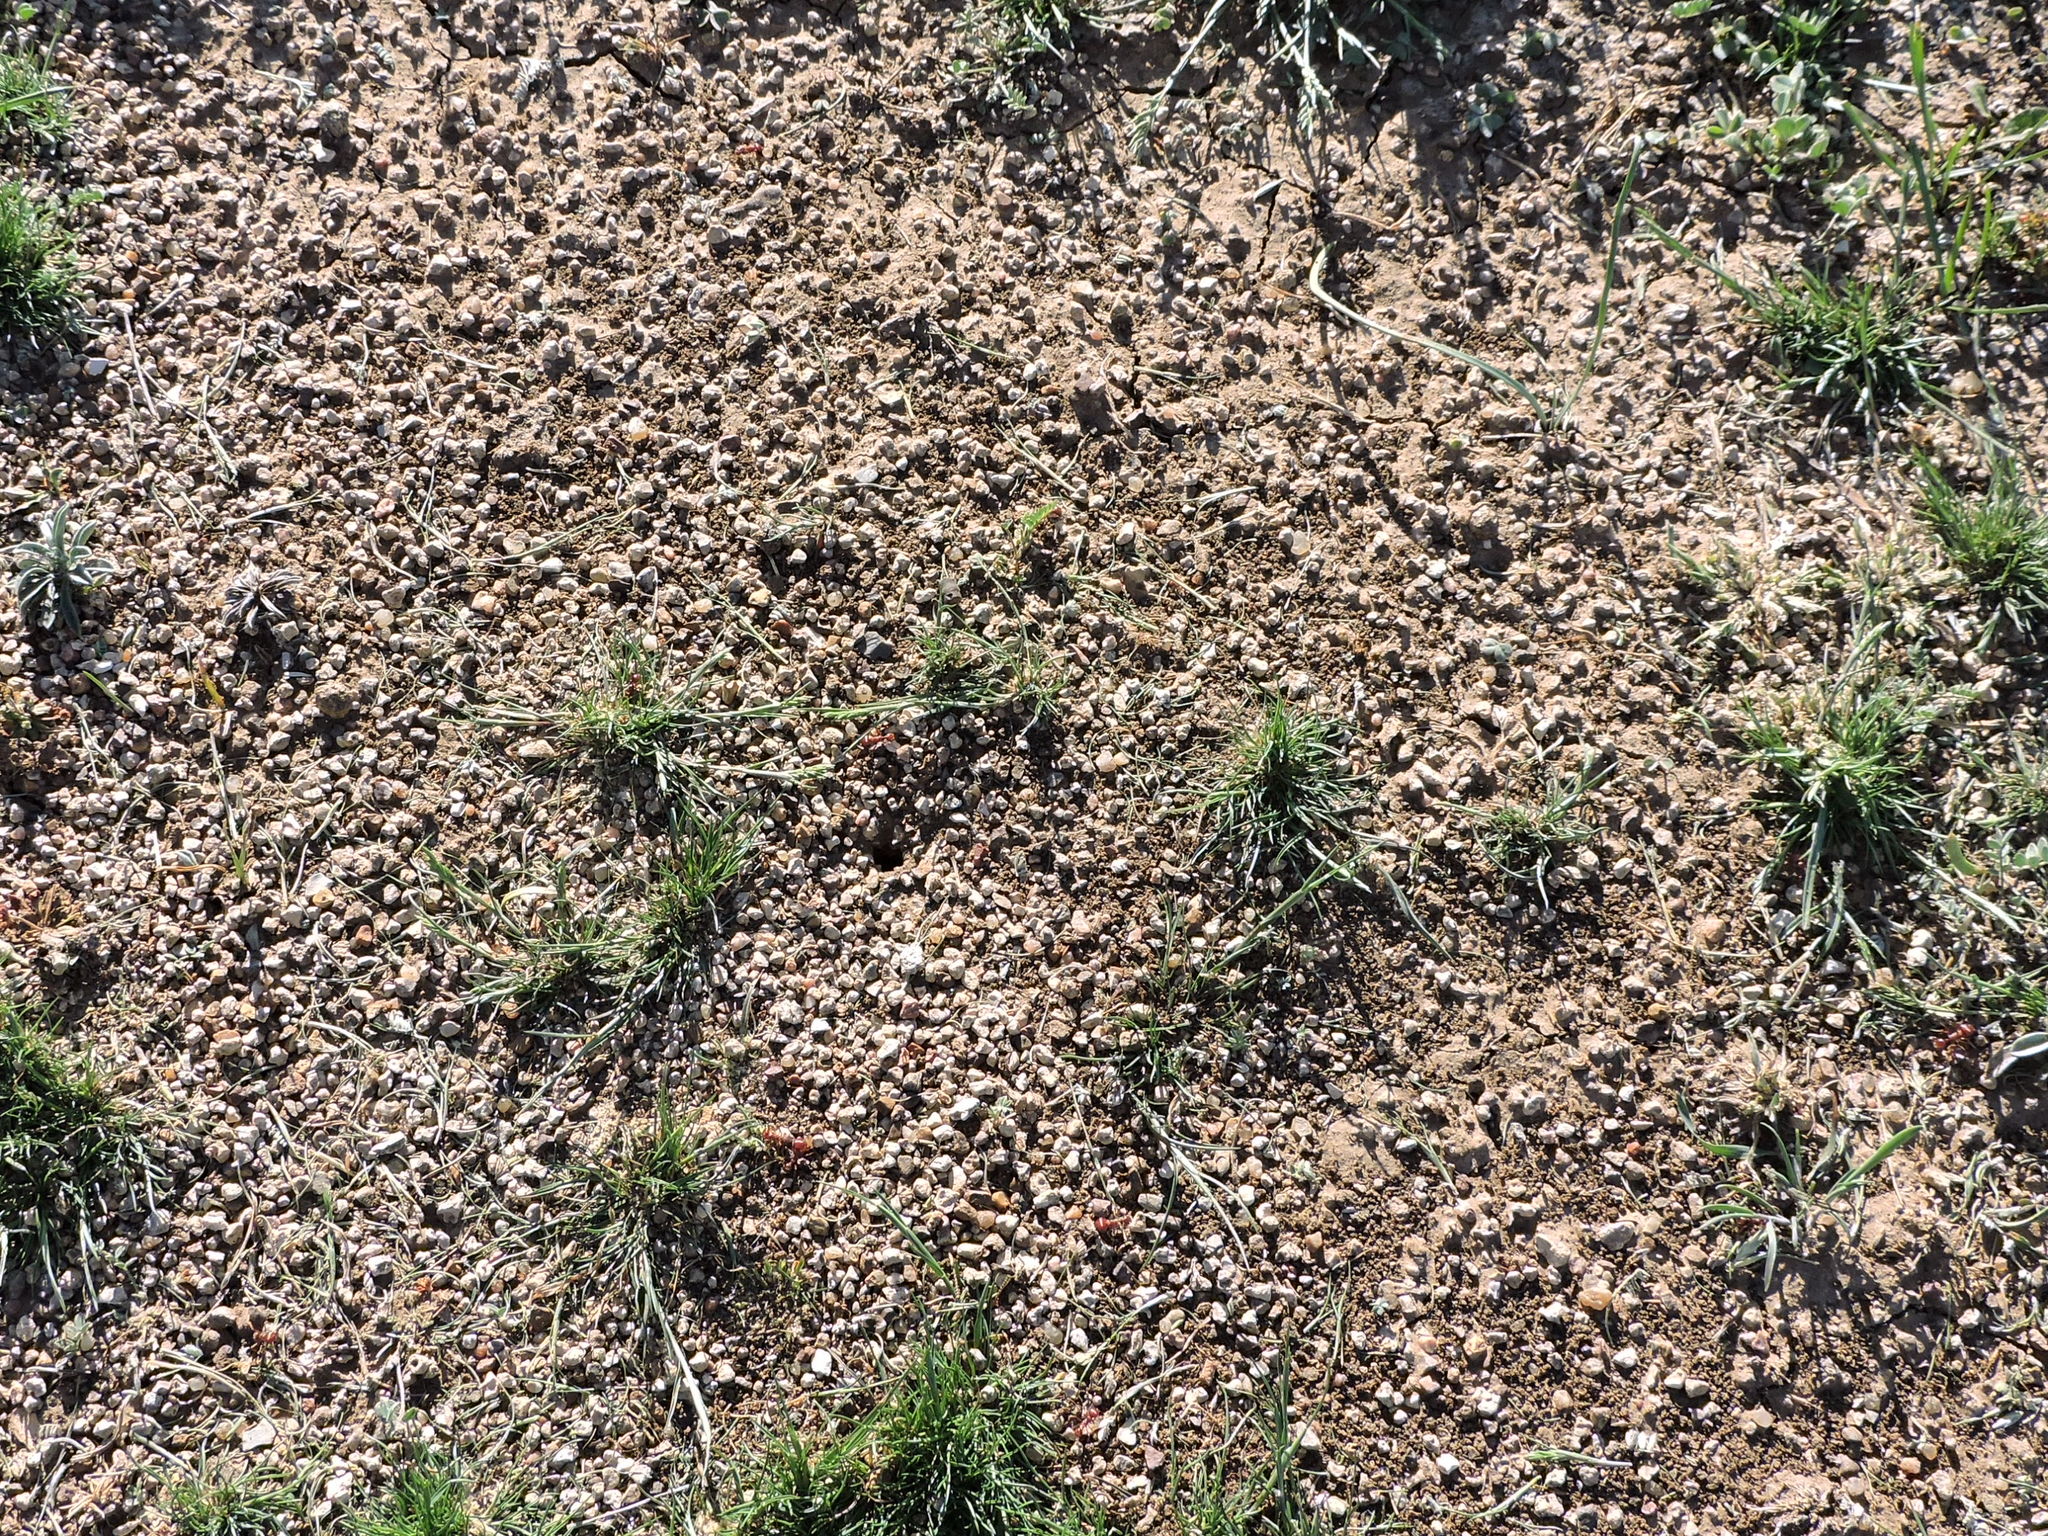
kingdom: Animalia
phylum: Arthropoda
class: Insecta
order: Hymenoptera
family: Formicidae
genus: Pogonomyrmex
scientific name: Pogonomyrmex barbatus
